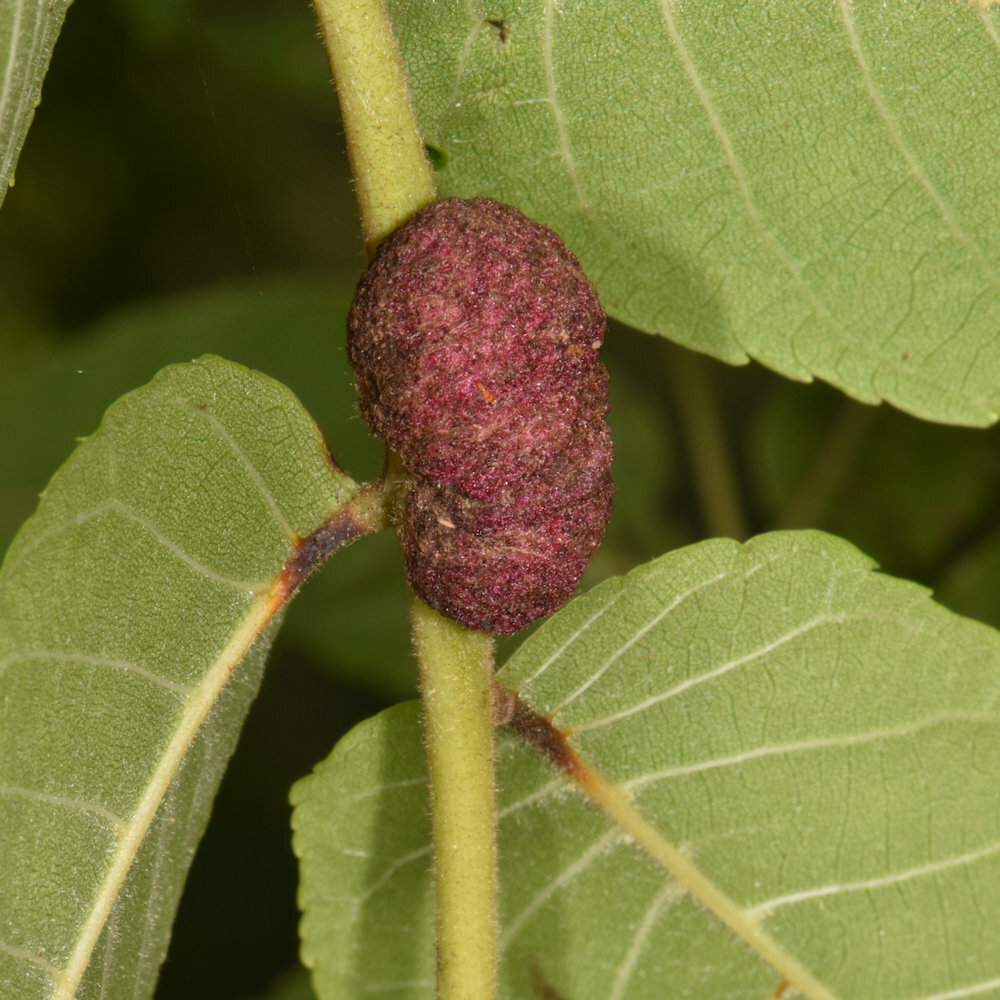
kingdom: Animalia
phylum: Arthropoda
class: Arachnida
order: Trombidiformes
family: Eriophyidae
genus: Aceria
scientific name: Aceria
